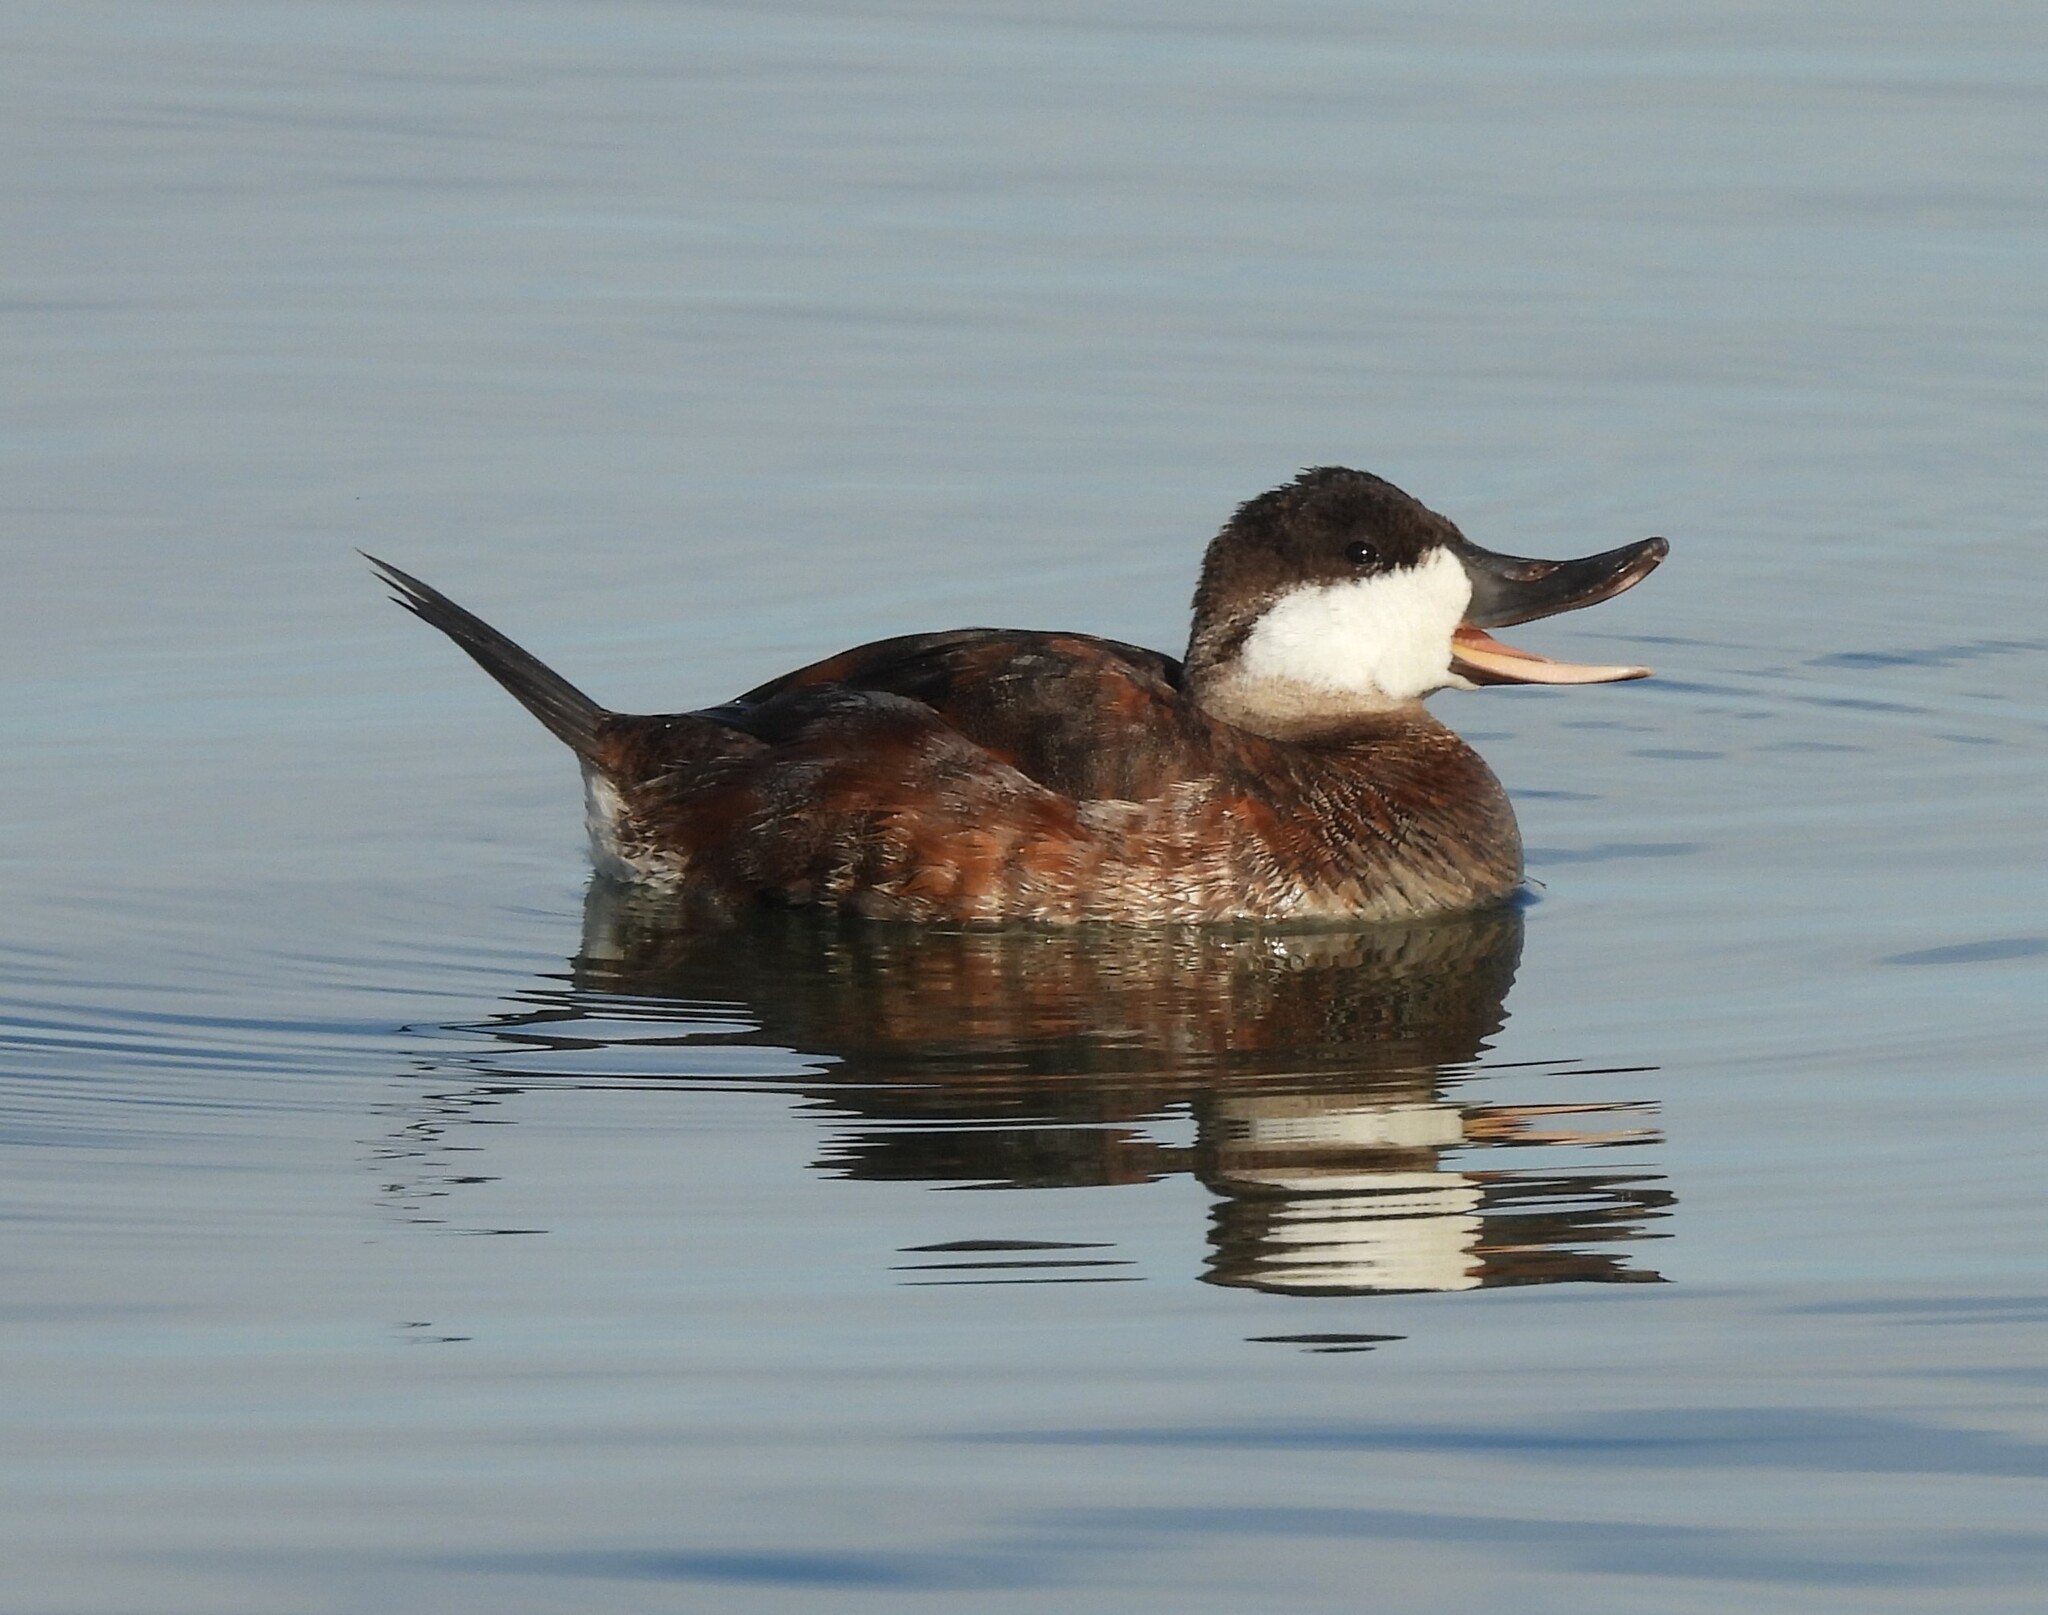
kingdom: Animalia
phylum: Chordata
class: Aves
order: Anseriformes
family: Anatidae
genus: Oxyura
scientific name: Oxyura jamaicensis
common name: Ruddy duck
